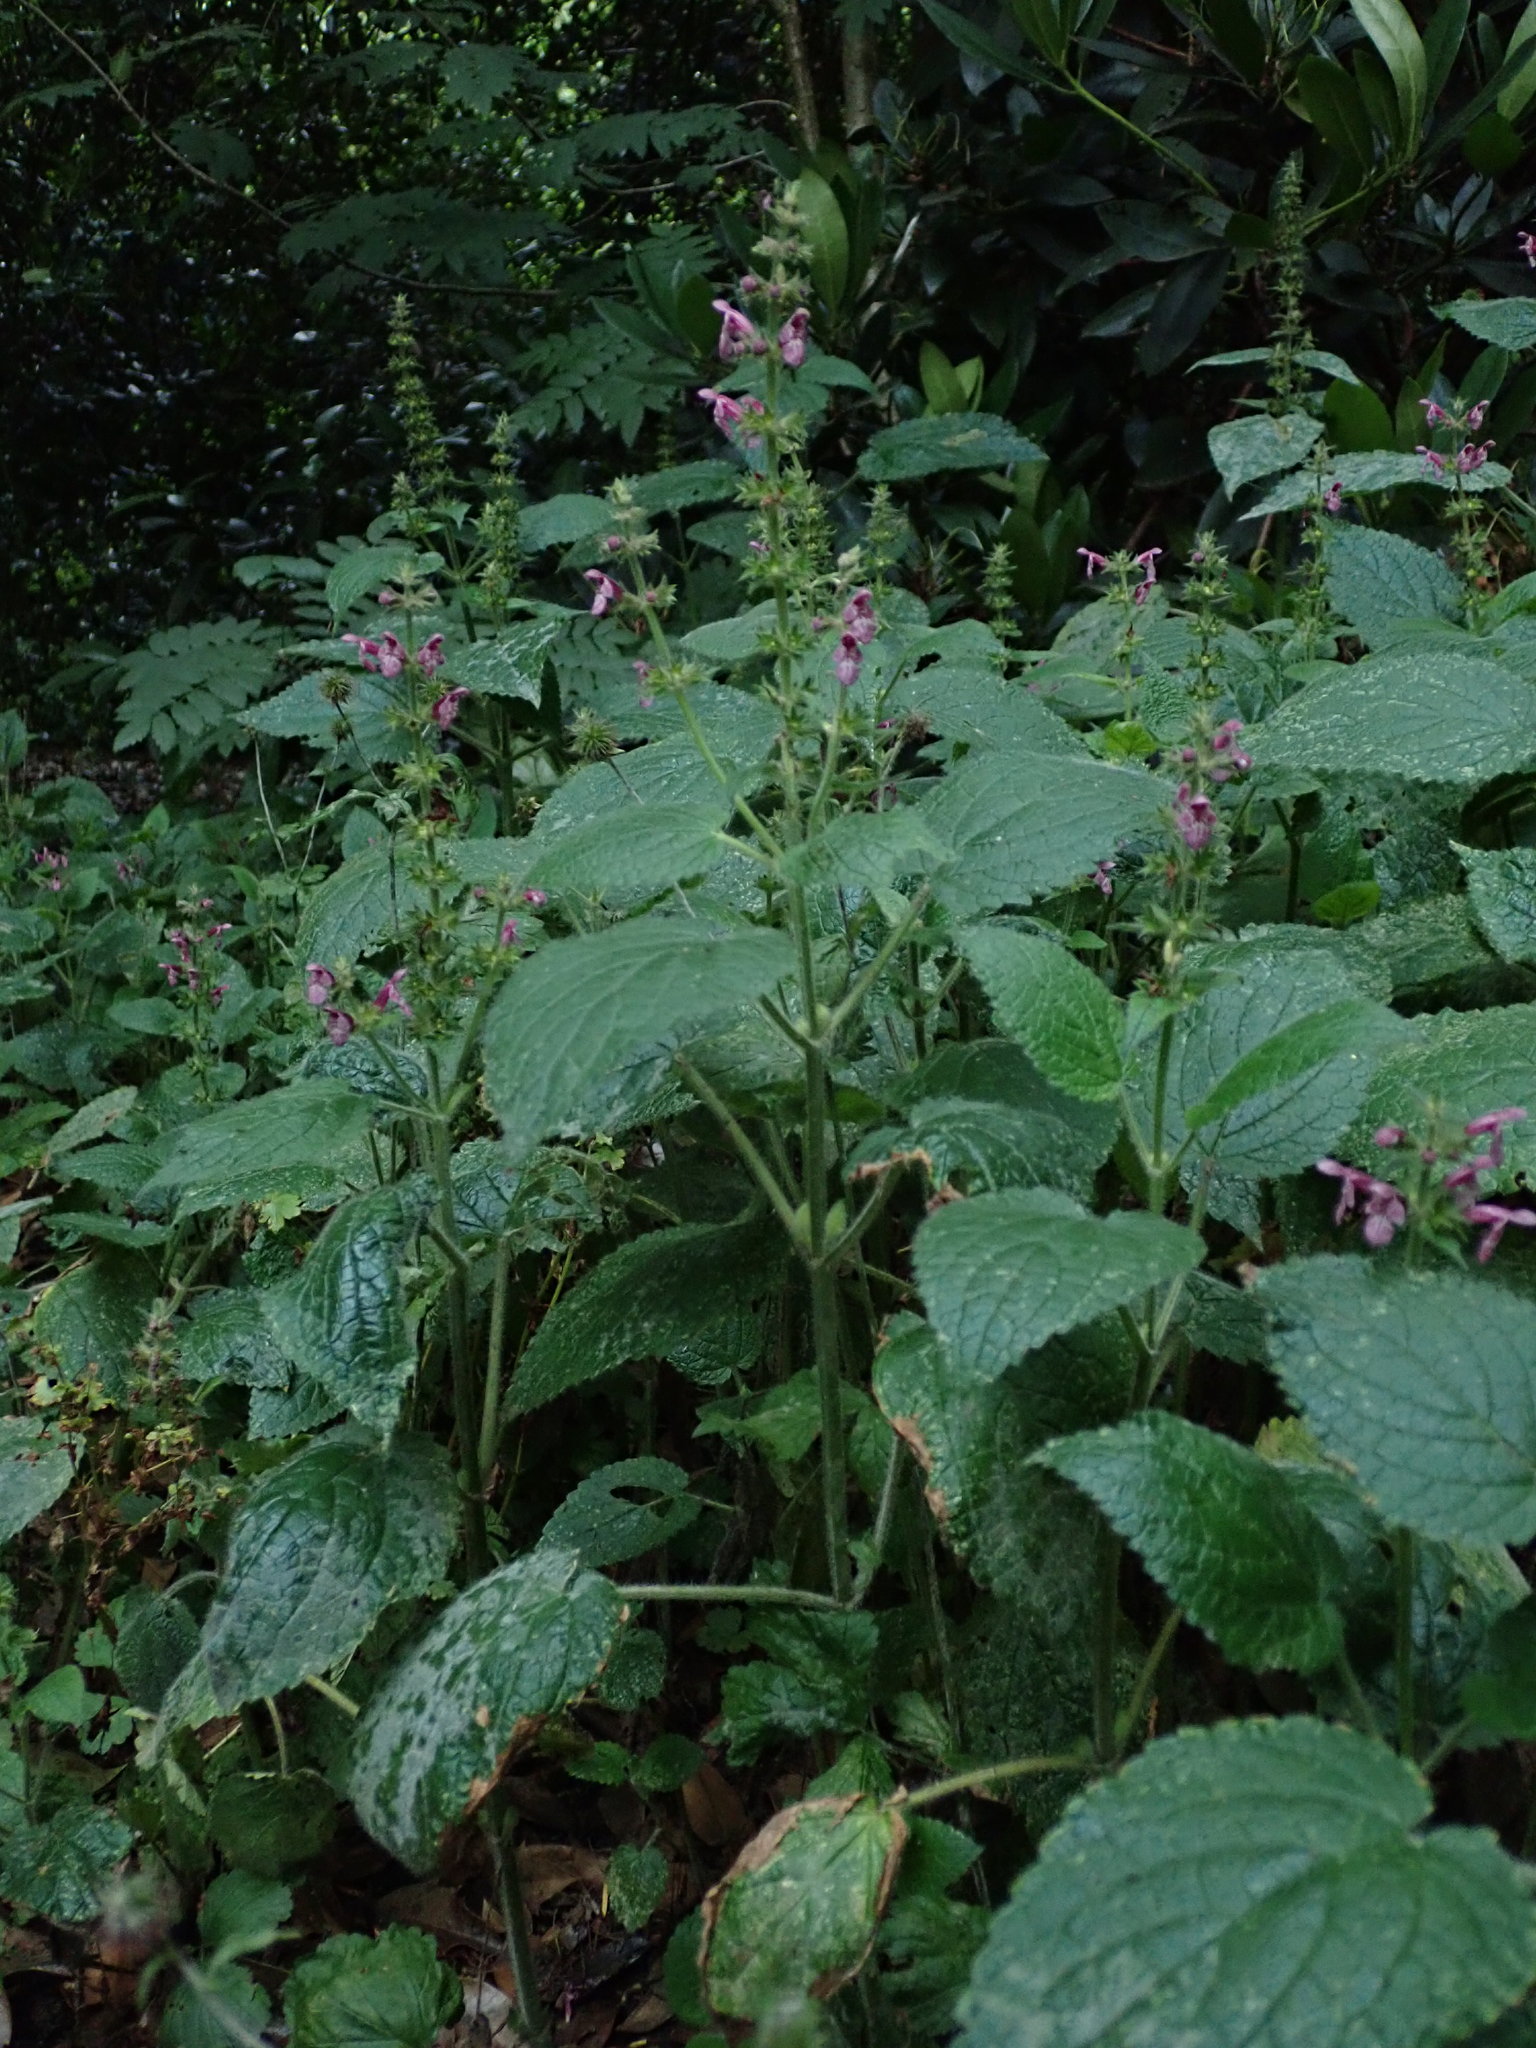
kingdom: Plantae
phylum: Tracheophyta
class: Magnoliopsida
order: Lamiales
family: Lamiaceae
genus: Stachys
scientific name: Stachys sylvatica
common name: Hedge woundwort
